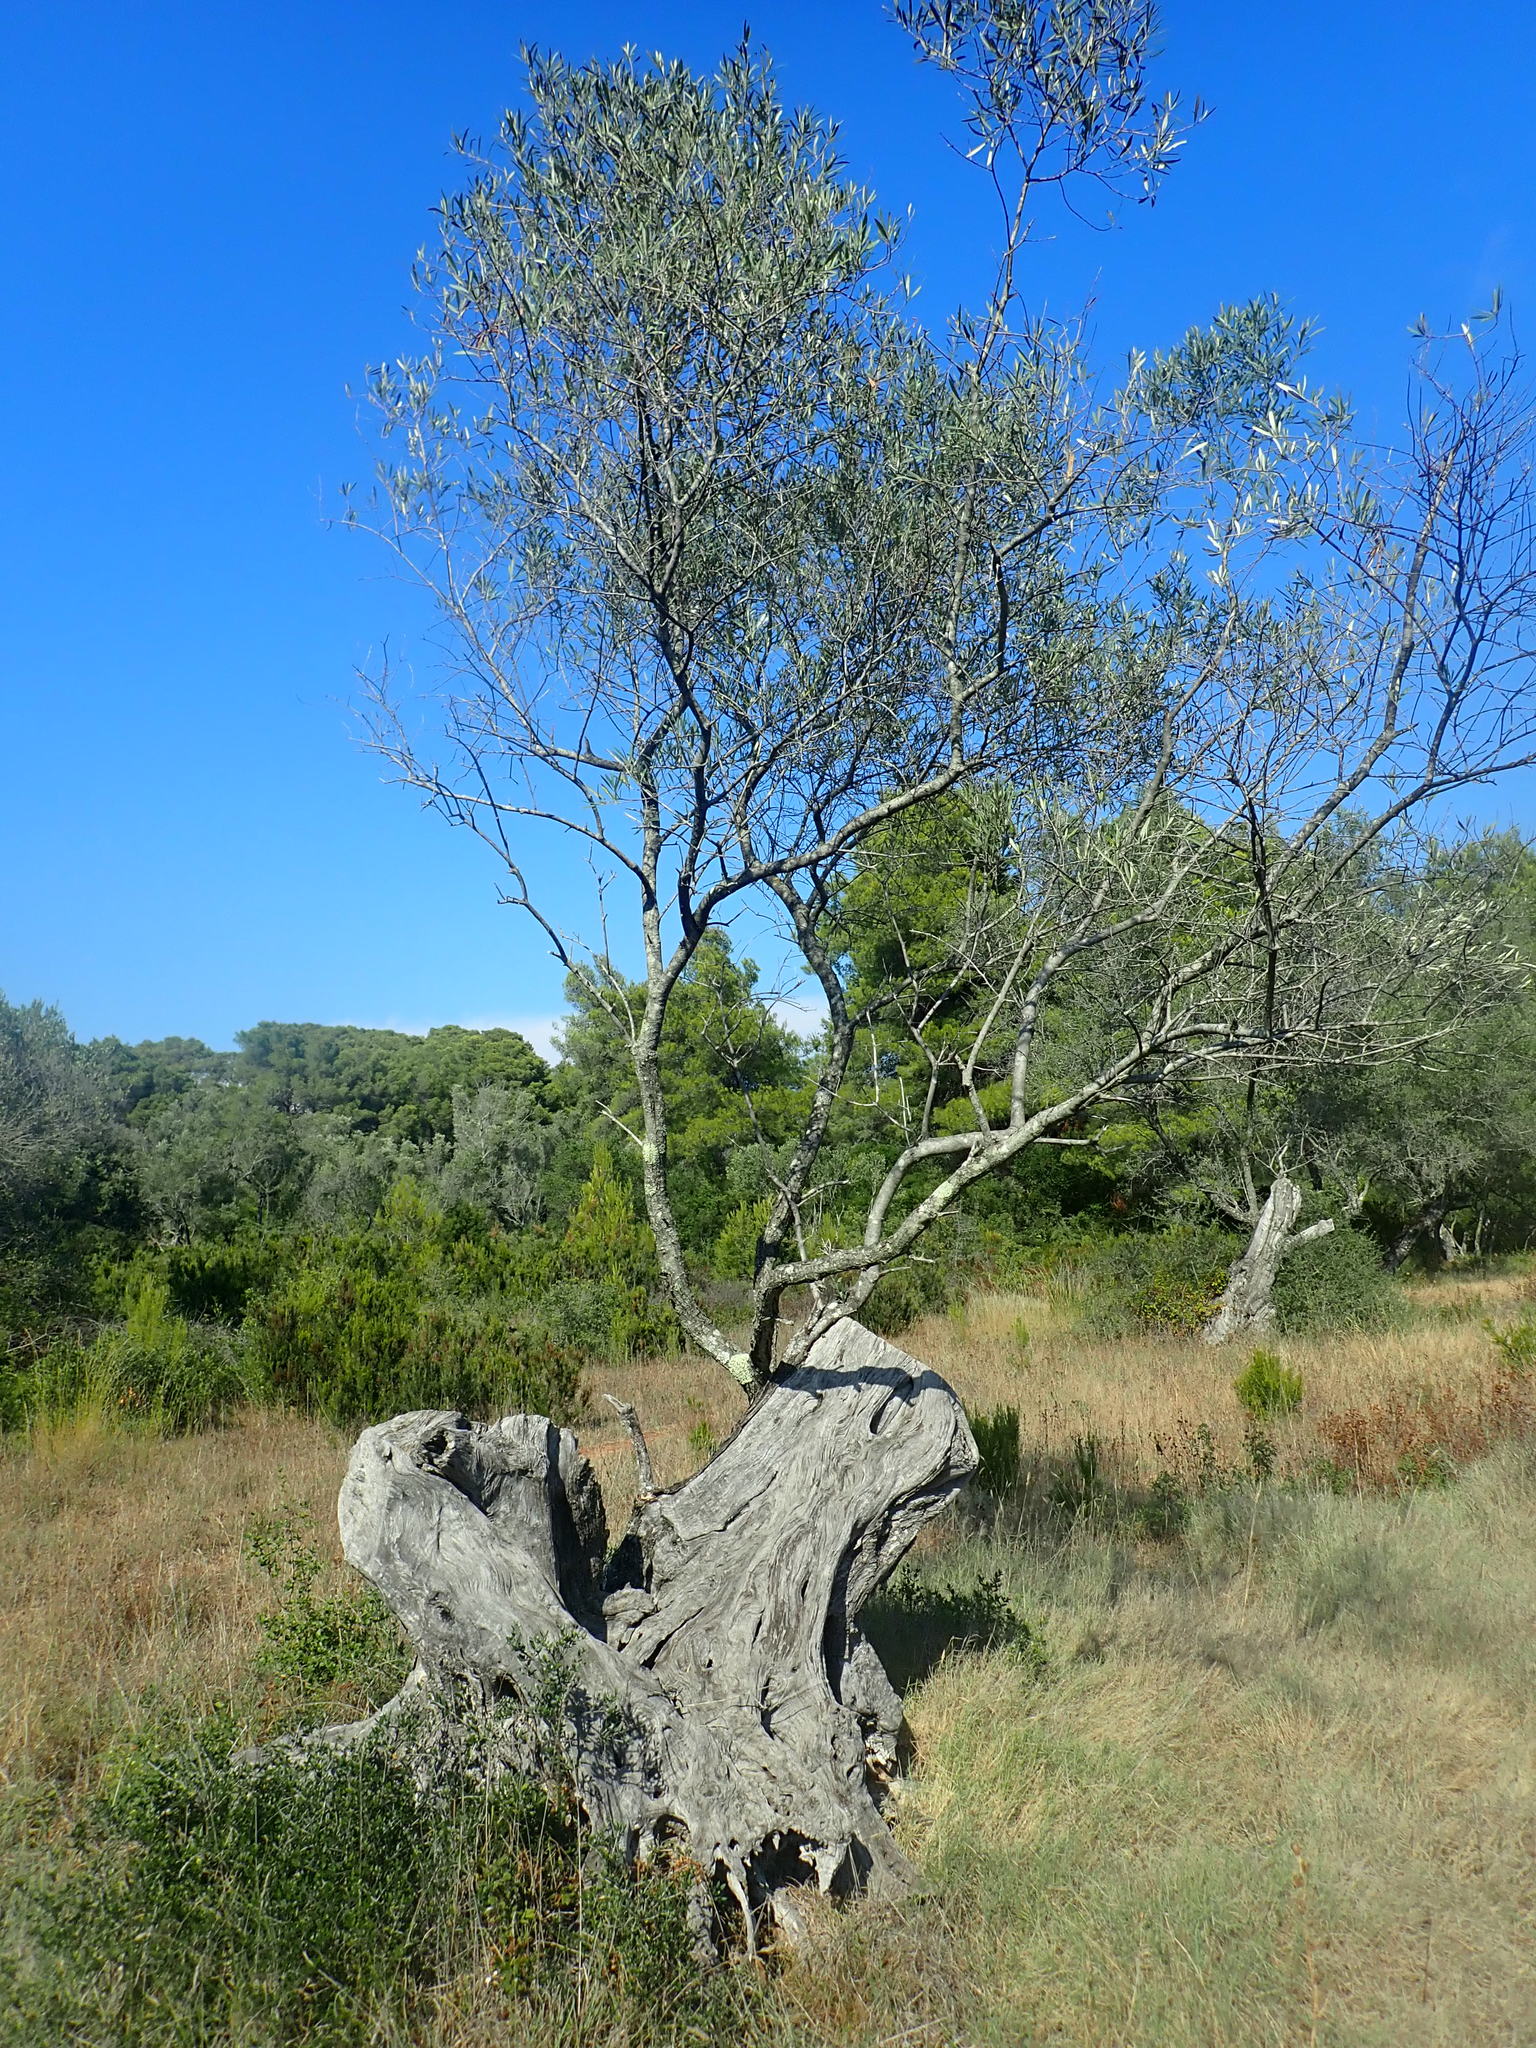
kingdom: Plantae
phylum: Tracheophyta
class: Magnoliopsida
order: Lamiales
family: Oleaceae
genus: Olea
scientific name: Olea europaea
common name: Olive
